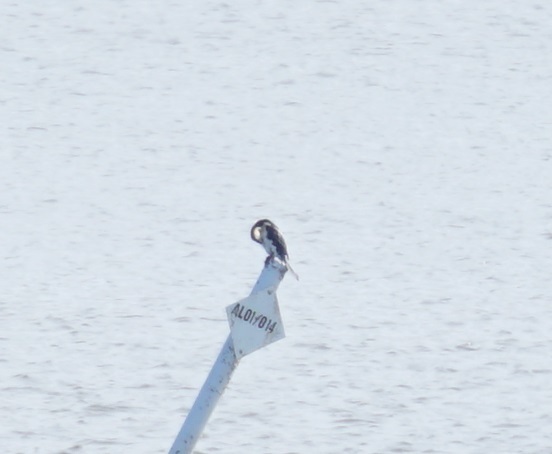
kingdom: Animalia
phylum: Chordata
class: Aves
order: Suliformes
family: Phalacrocoracidae
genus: Microcarbo
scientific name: Microcarbo melanoleucos
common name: Little pied cormorant
